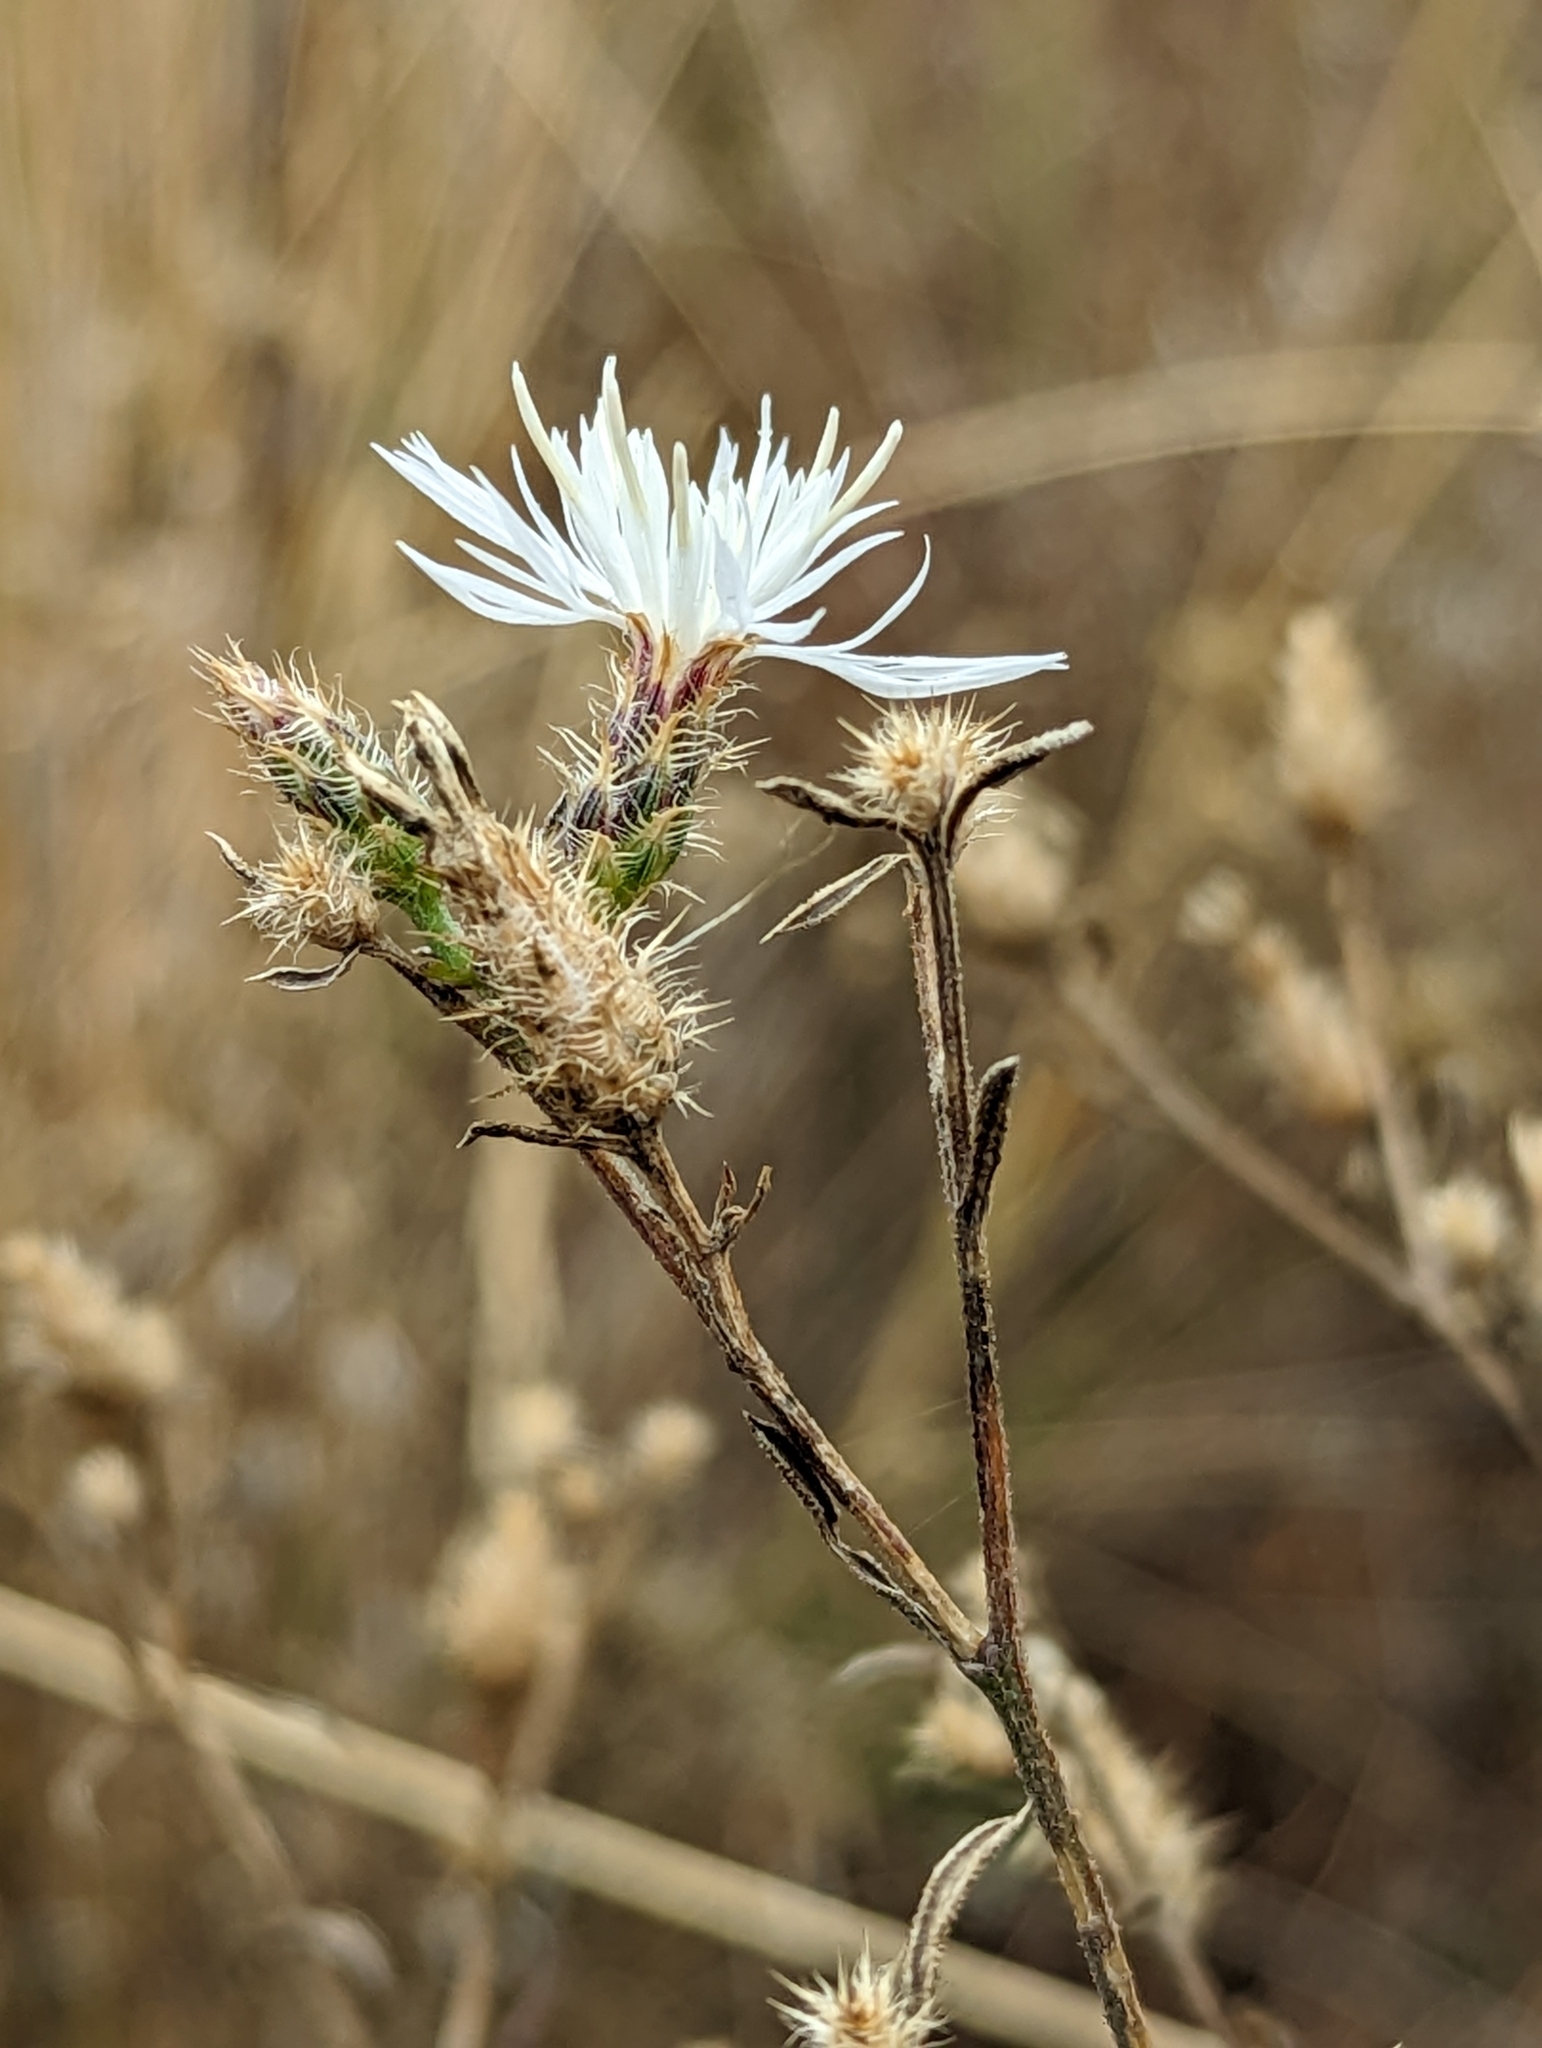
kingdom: Plantae
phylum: Tracheophyta
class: Magnoliopsida
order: Asterales
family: Asteraceae
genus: Centaurea
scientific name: Centaurea diffusa
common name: Diffuse knapweed
